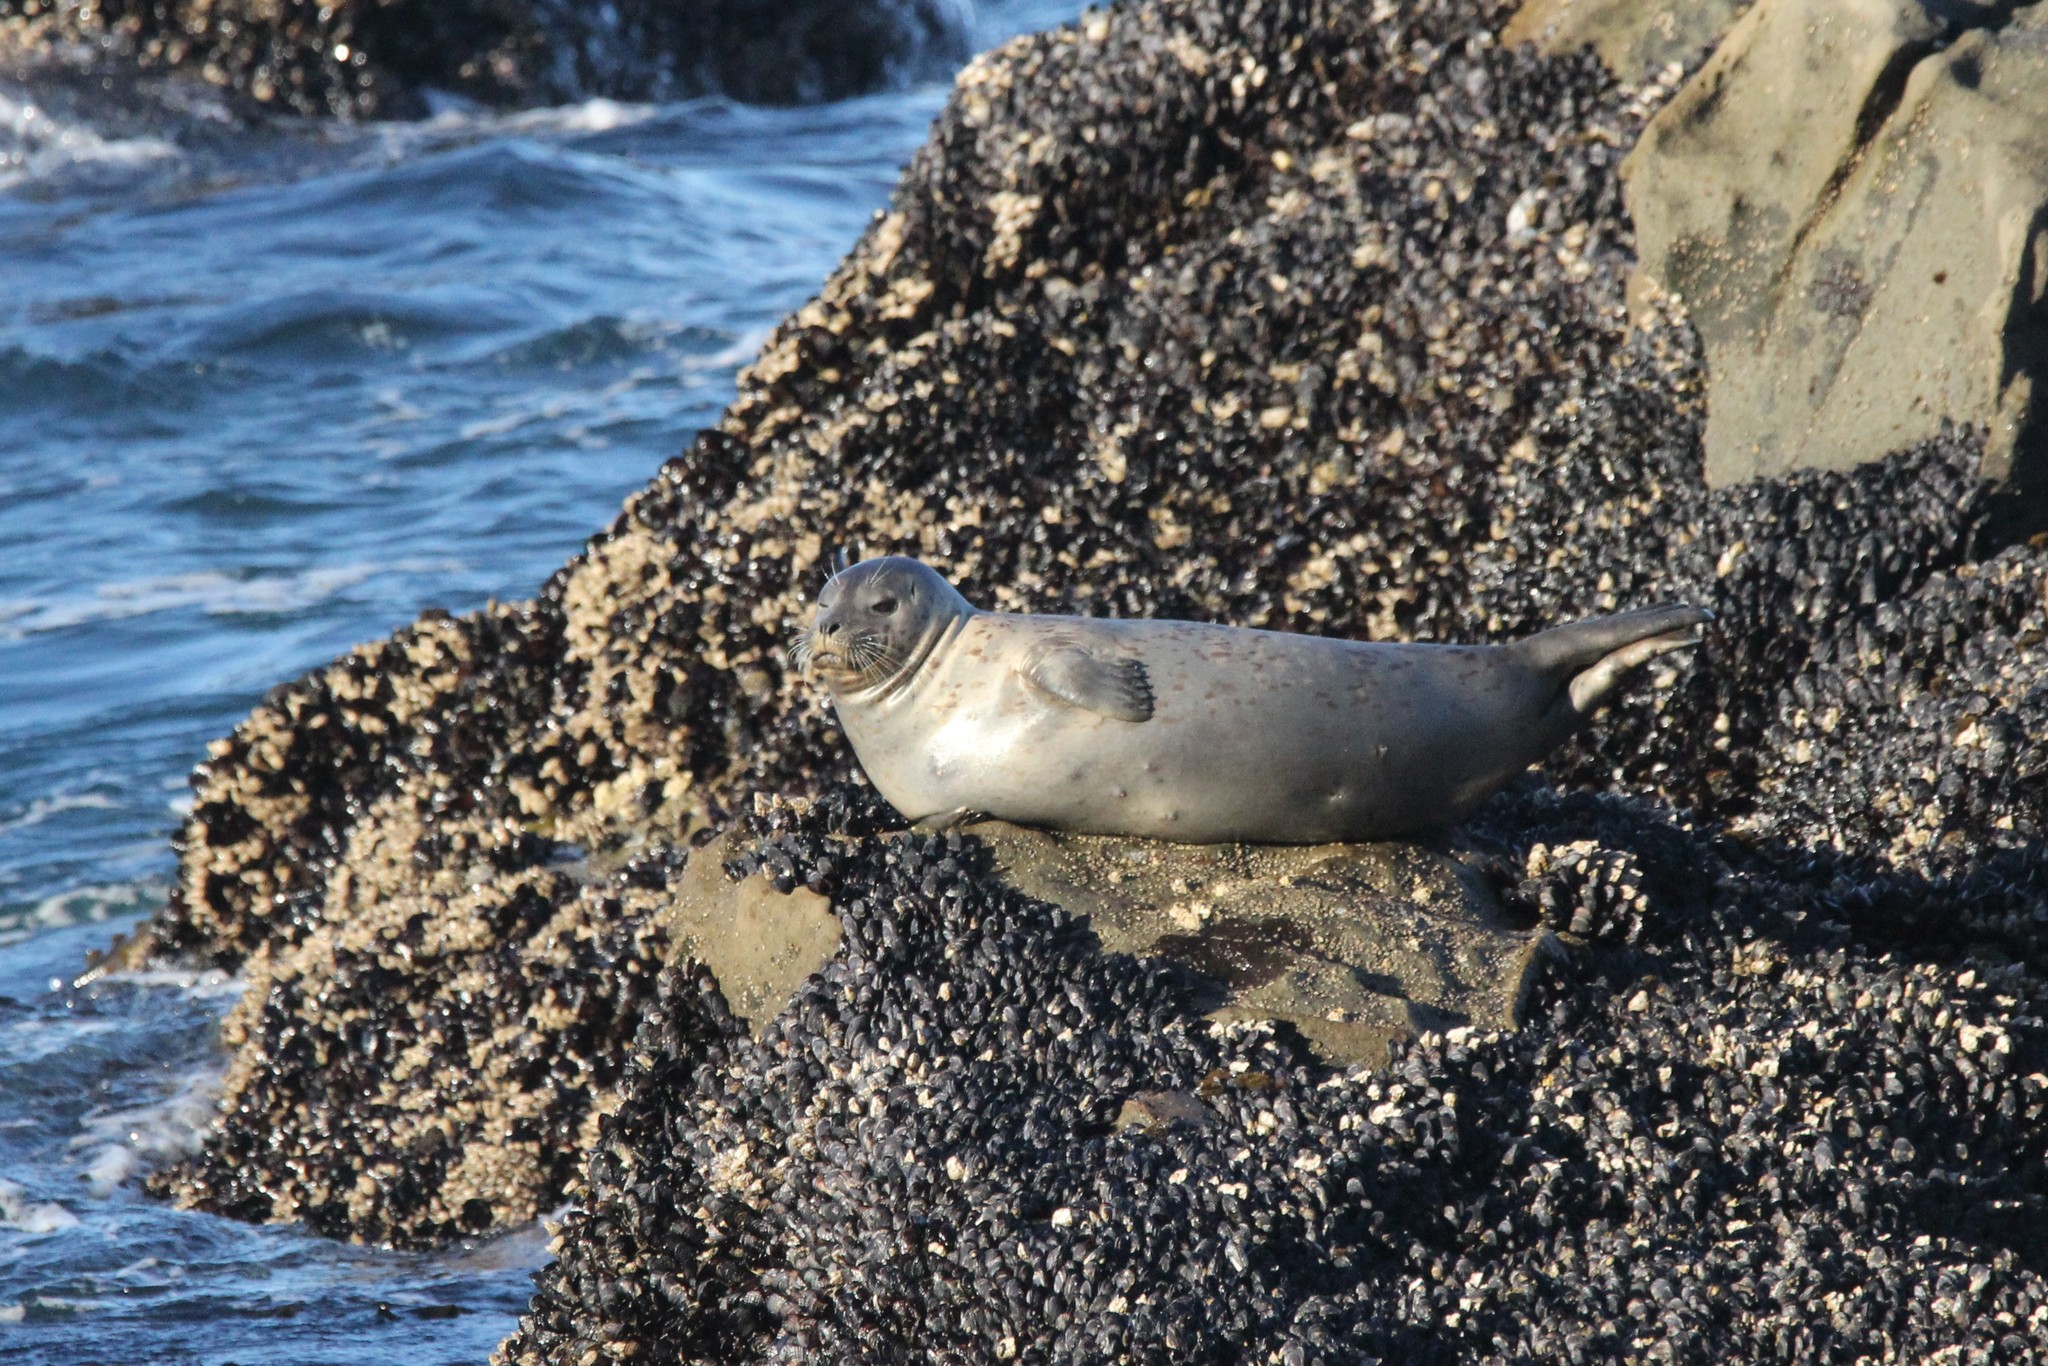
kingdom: Animalia
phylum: Chordata
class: Mammalia
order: Carnivora
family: Phocidae
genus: Phoca
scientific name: Phoca vitulina
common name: Harbor seal
